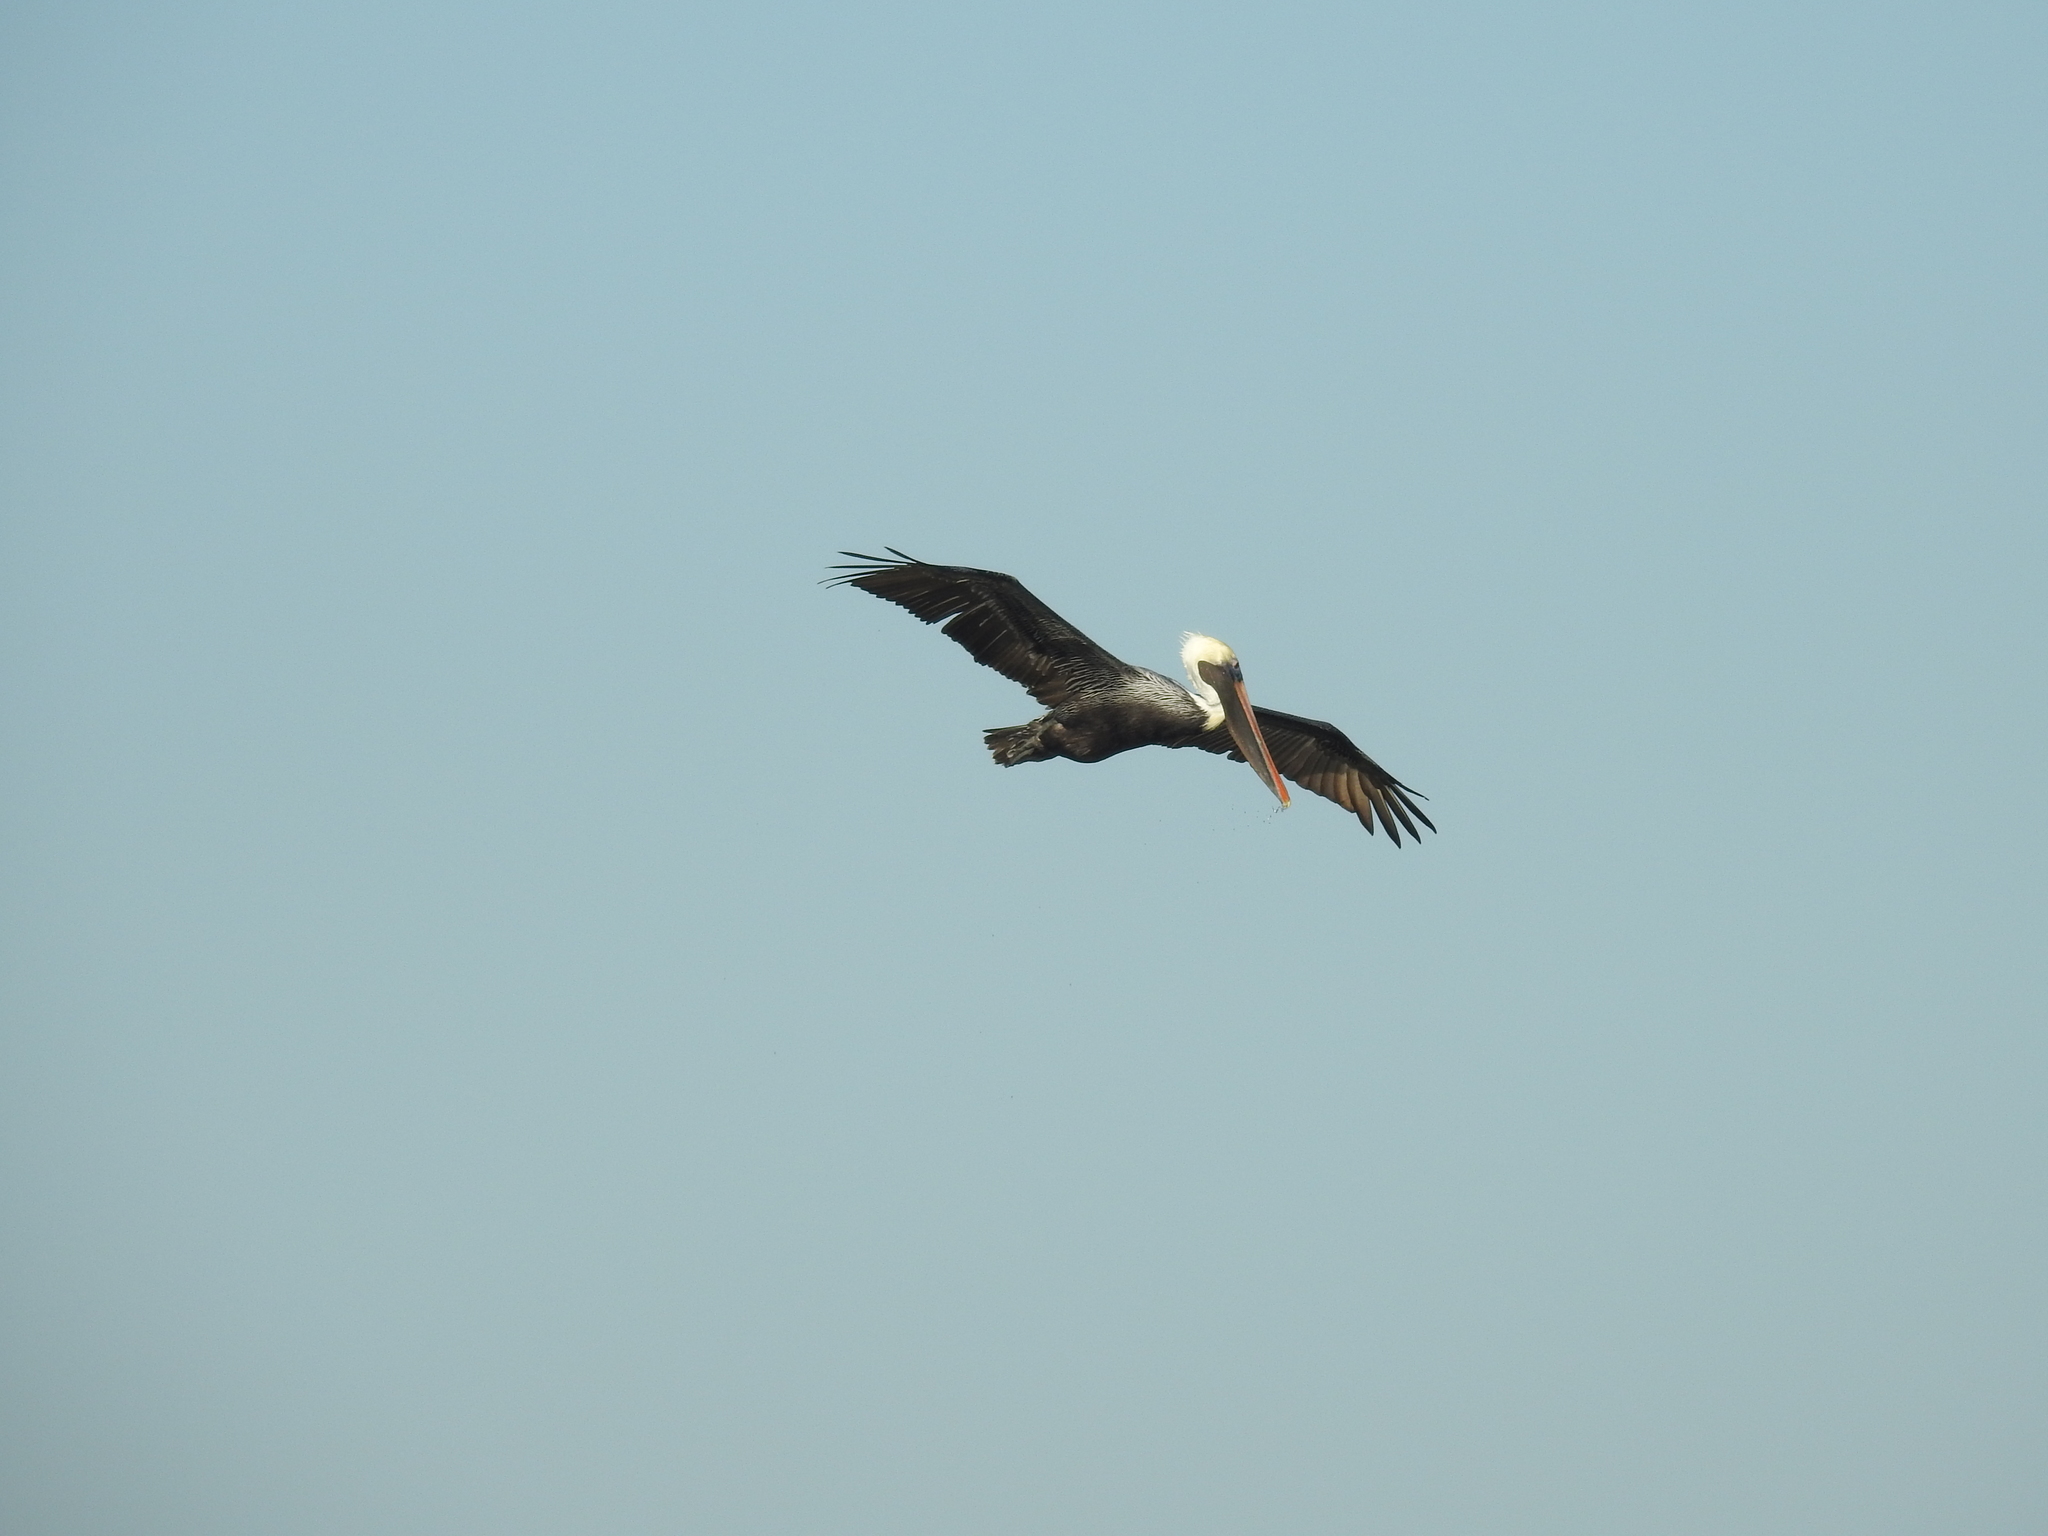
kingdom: Animalia
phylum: Chordata
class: Aves
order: Pelecaniformes
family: Pelecanidae
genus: Pelecanus
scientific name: Pelecanus occidentalis
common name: Brown pelican
